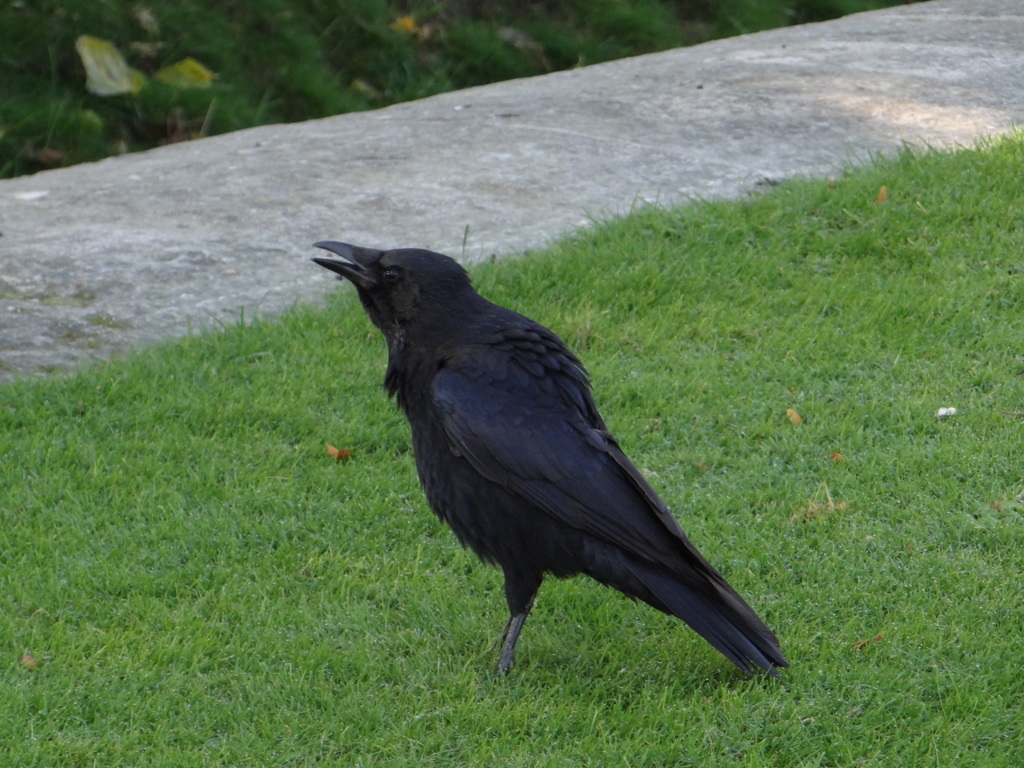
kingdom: Animalia
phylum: Chordata
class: Aves
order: Passeriformes
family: Corvidae
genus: Corvus
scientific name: Corvus corone
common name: Carrion crow
